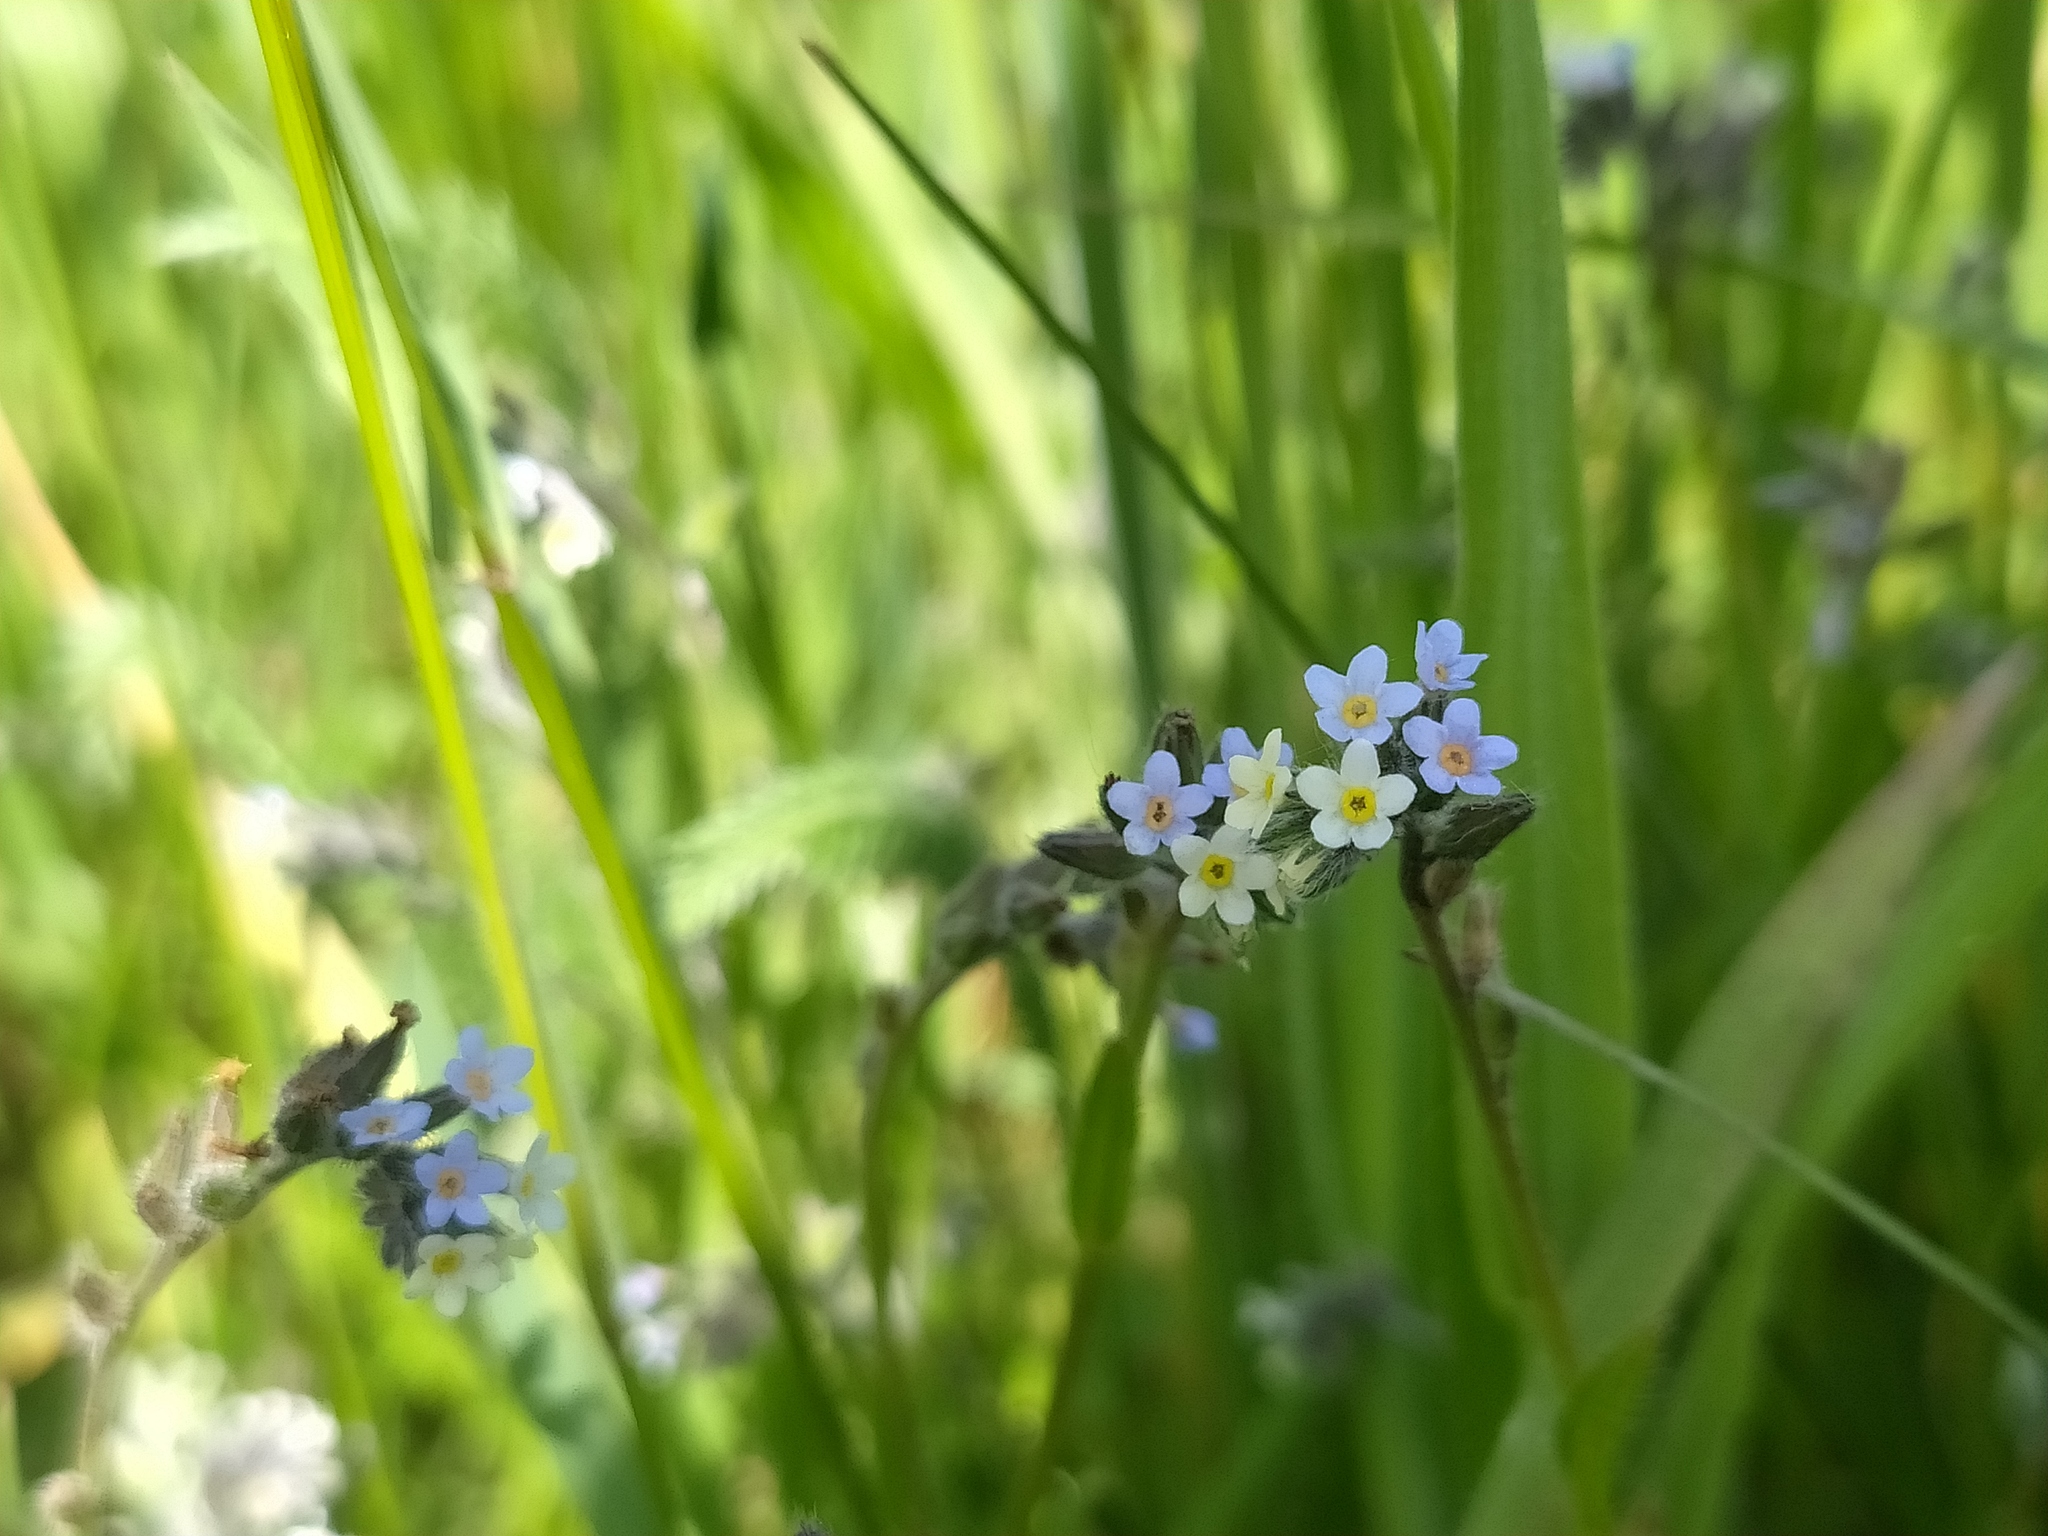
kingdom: Plantae
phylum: Tracheophyta
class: Magnoliopsida
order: Boraginales
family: Boraginaceae
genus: Myosotis
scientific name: Myosotis discolor
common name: Changing forget-me-not
